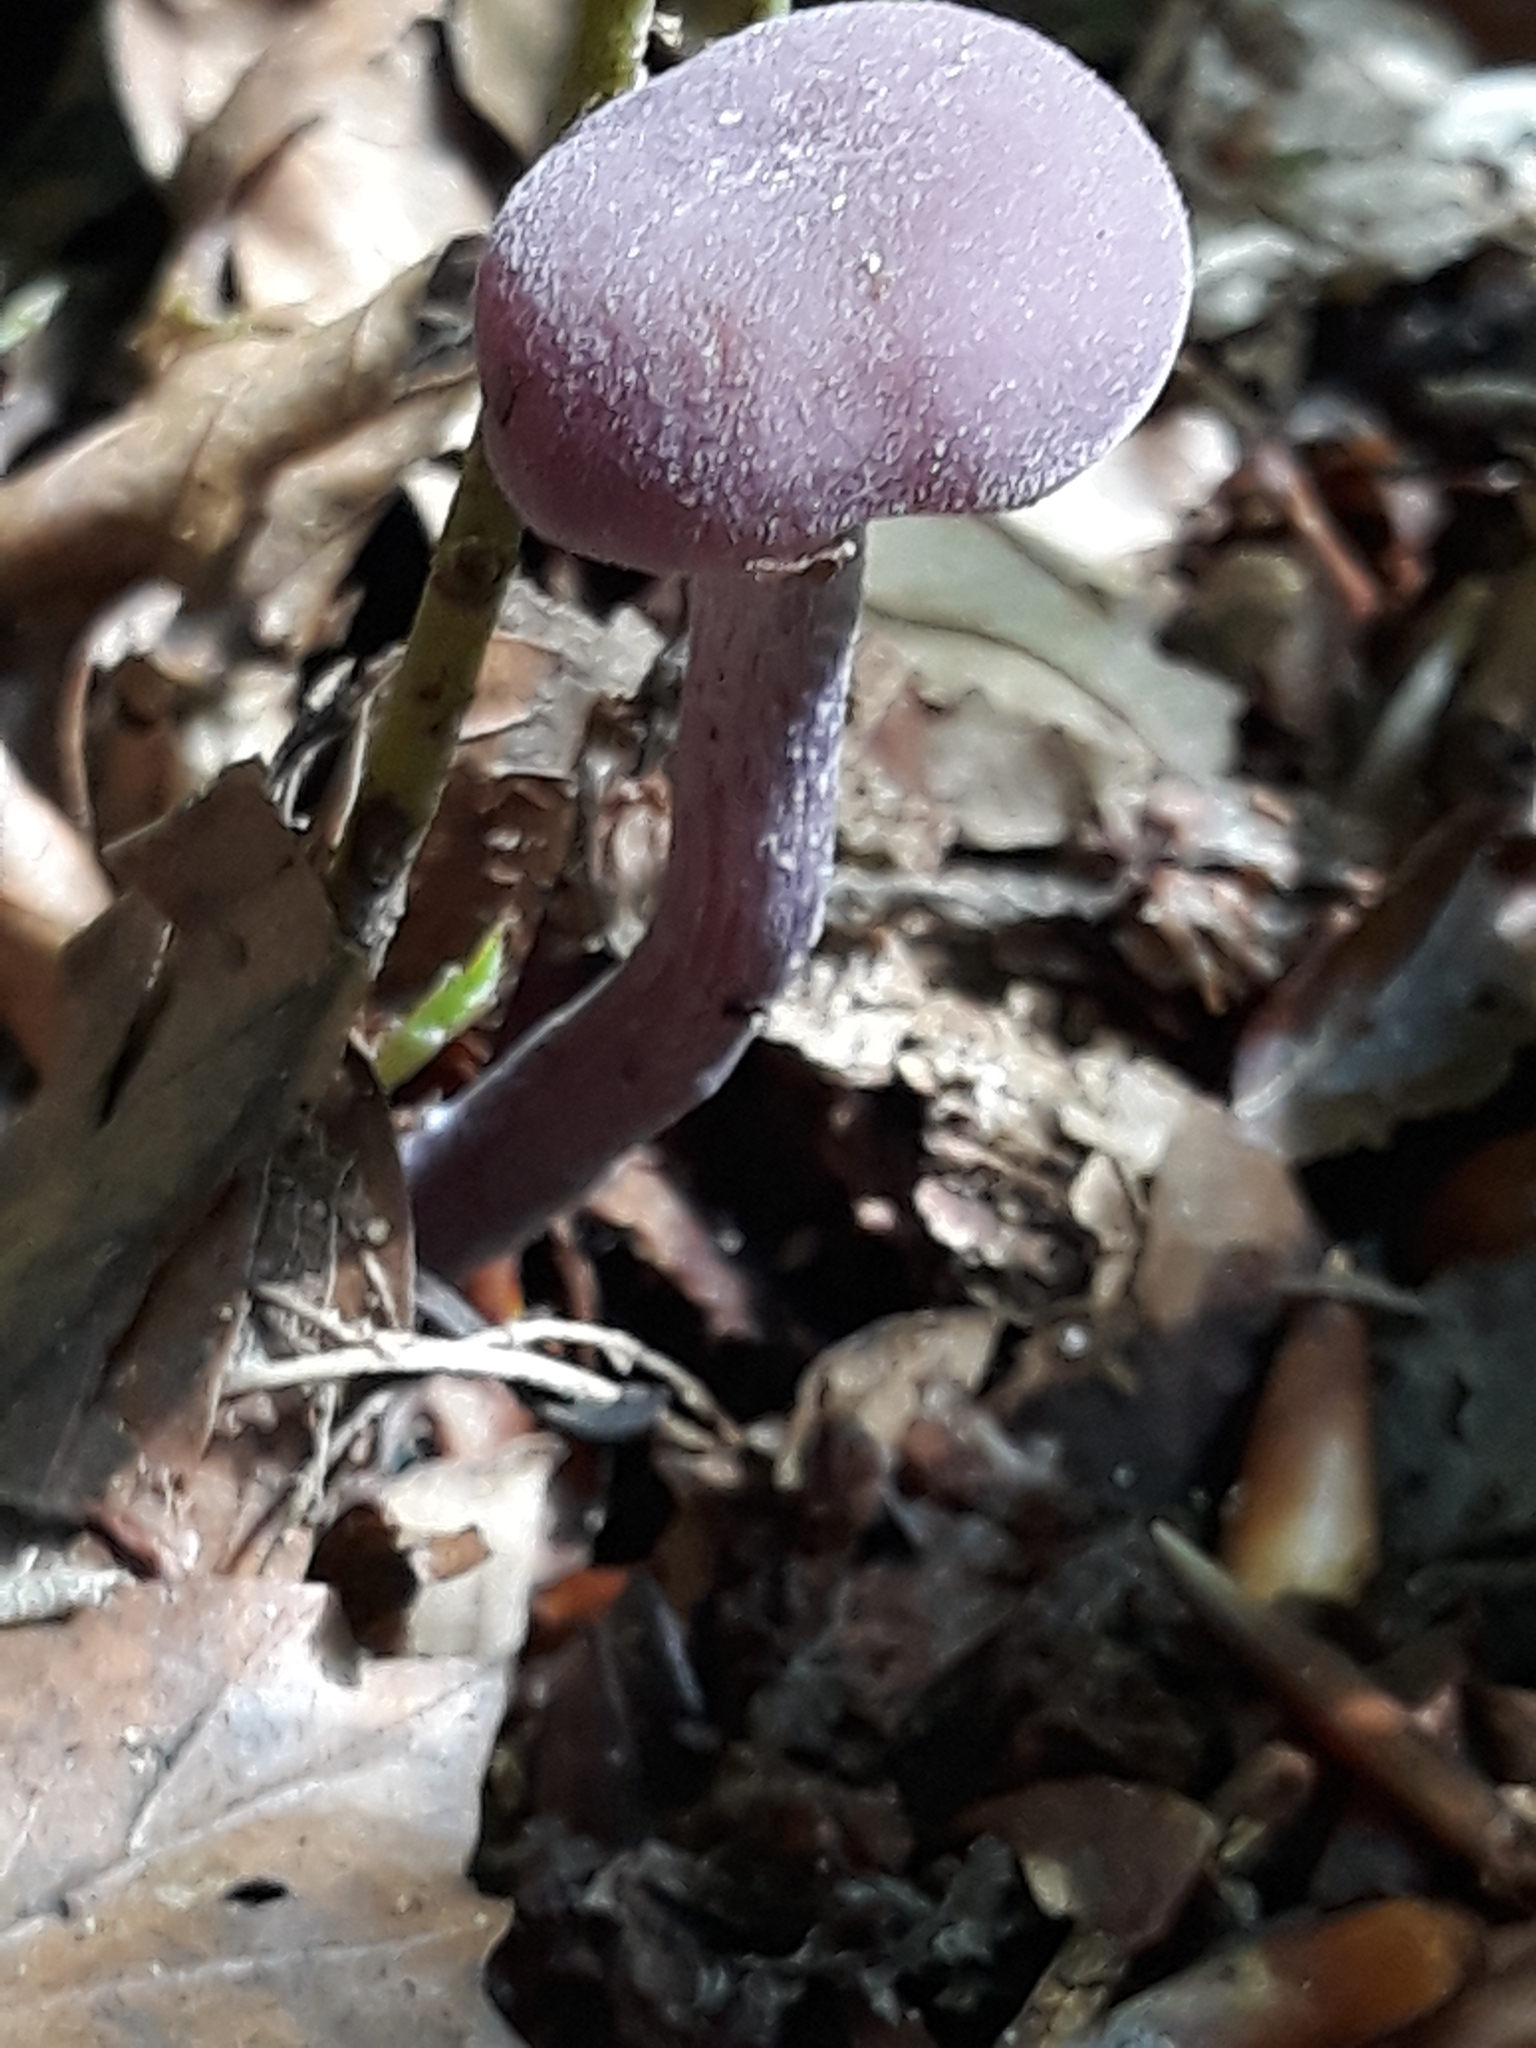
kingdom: Fungi
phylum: Basidiomycota
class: Agaricomycetes
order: Agaricales
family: Hydnangiaceae
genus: Laccaria
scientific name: Laccaria amethystina
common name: Amethyst deceiver
